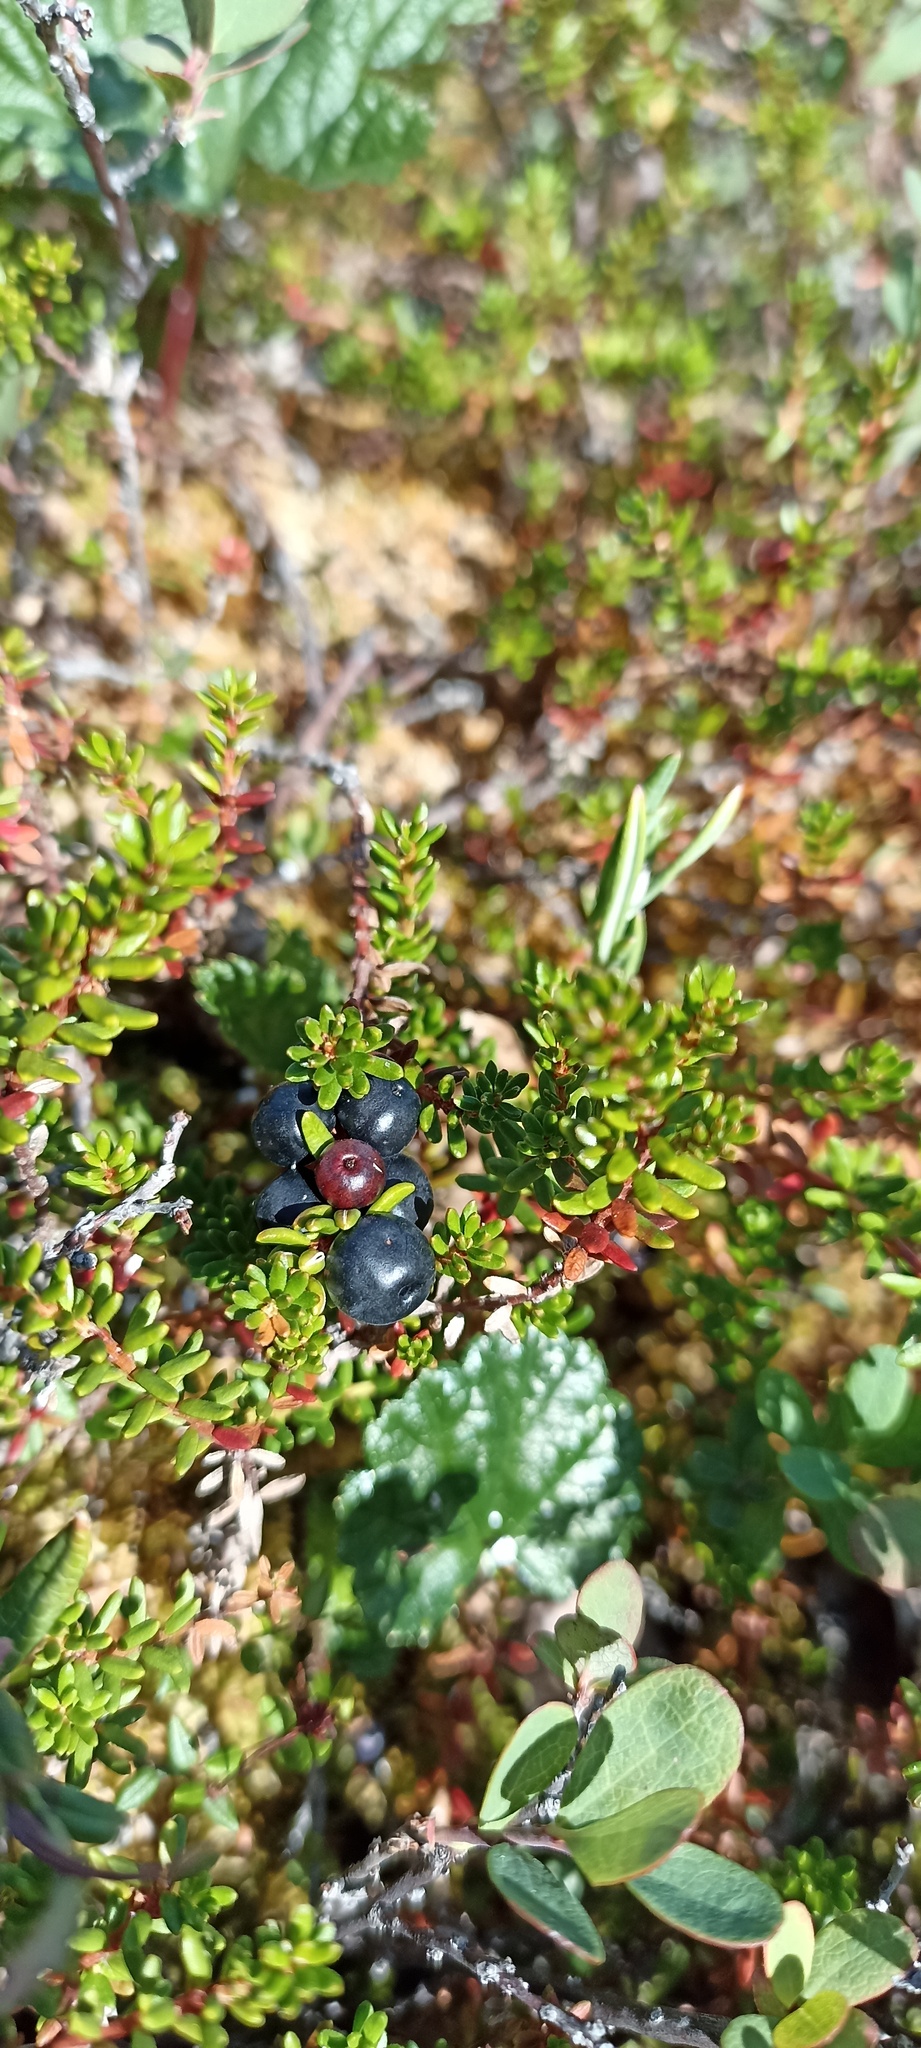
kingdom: Plantae
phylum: Tracheophyta
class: Magnoliopsida
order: Ericales
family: Ericaceae
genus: Empetrum
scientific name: Empetrum nigrum
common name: Black crowberry
